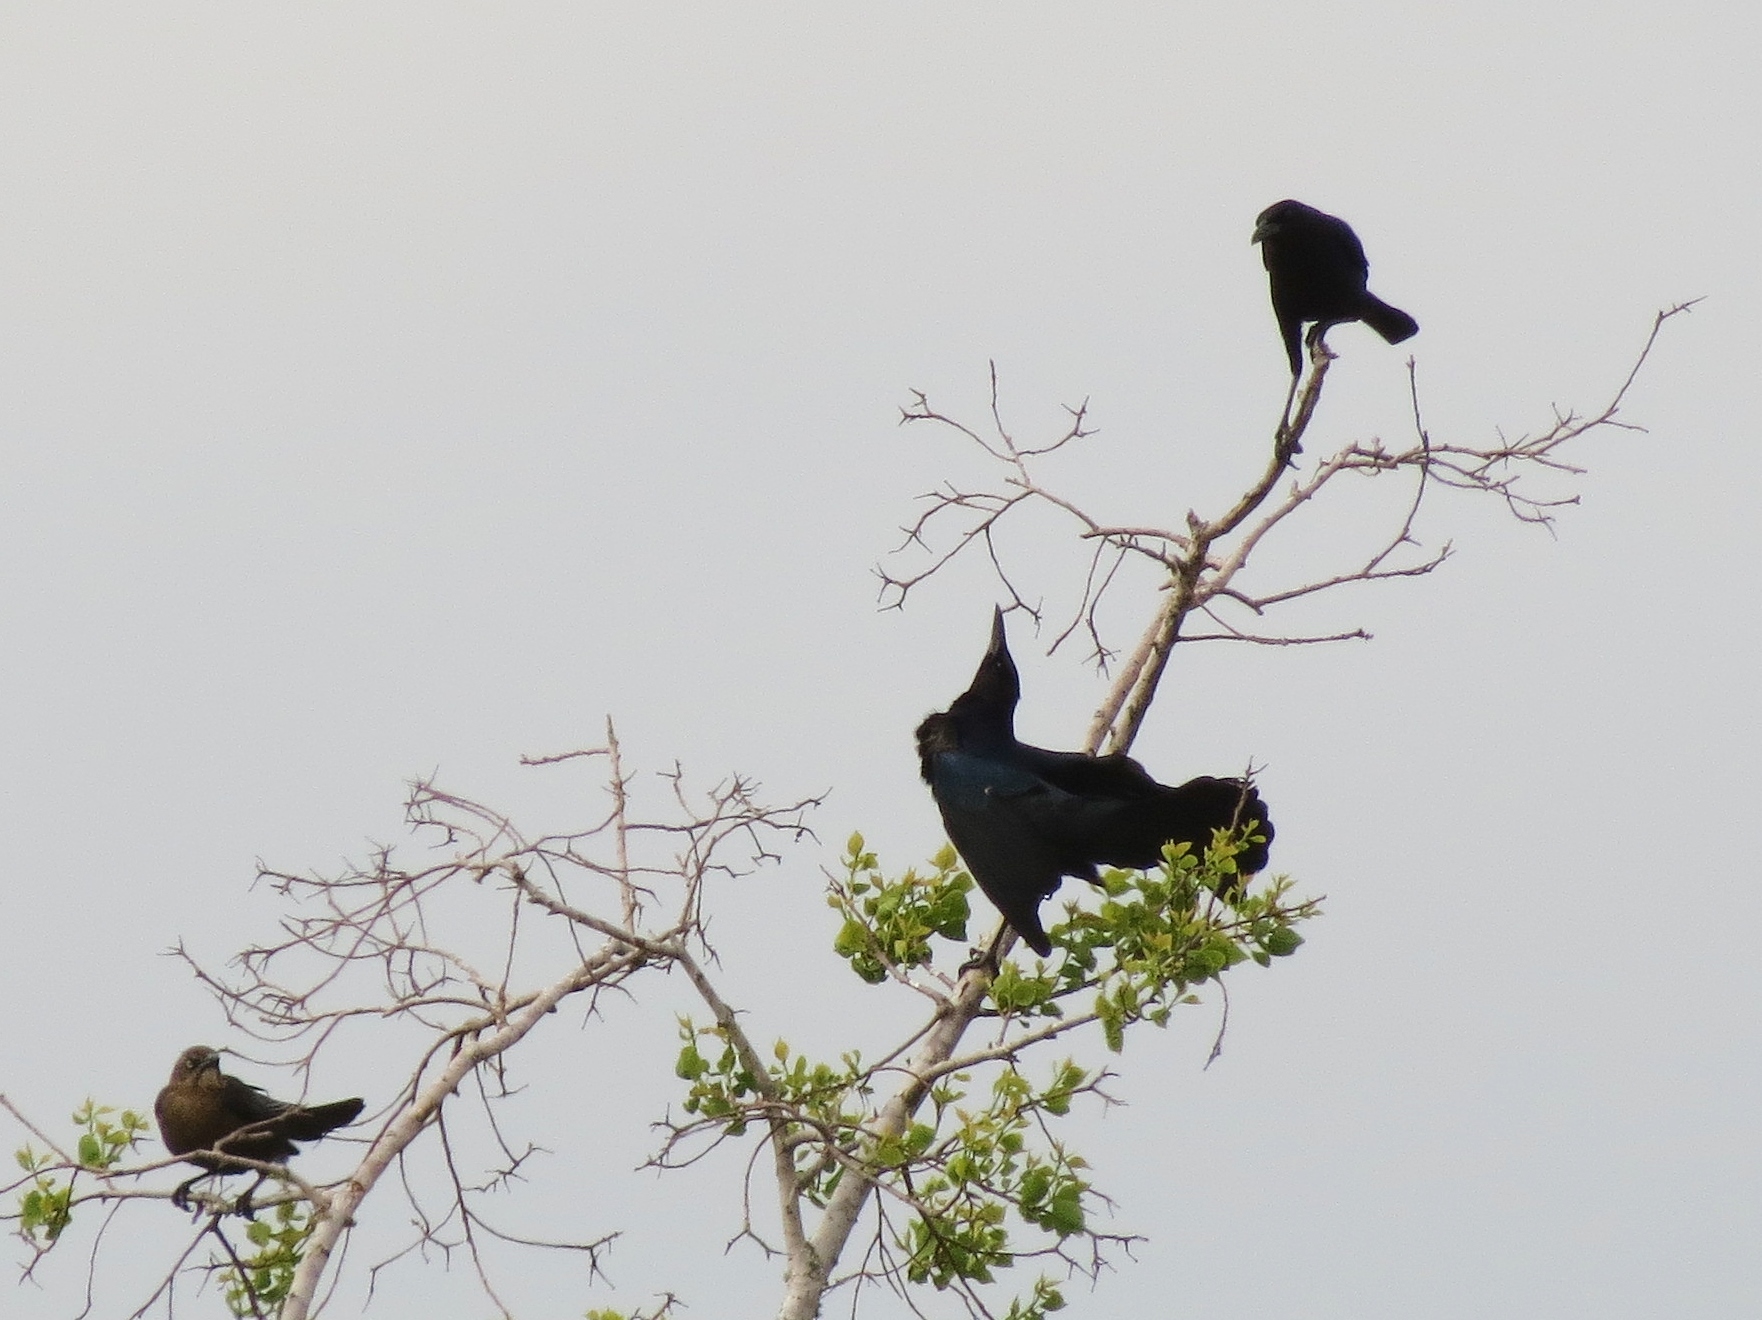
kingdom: Animalia
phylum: Chordata
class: Aves
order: Passeriformes
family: Icteridae
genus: Quiscalus
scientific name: Quiscalus mexicanus
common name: Great-tailed grackle
